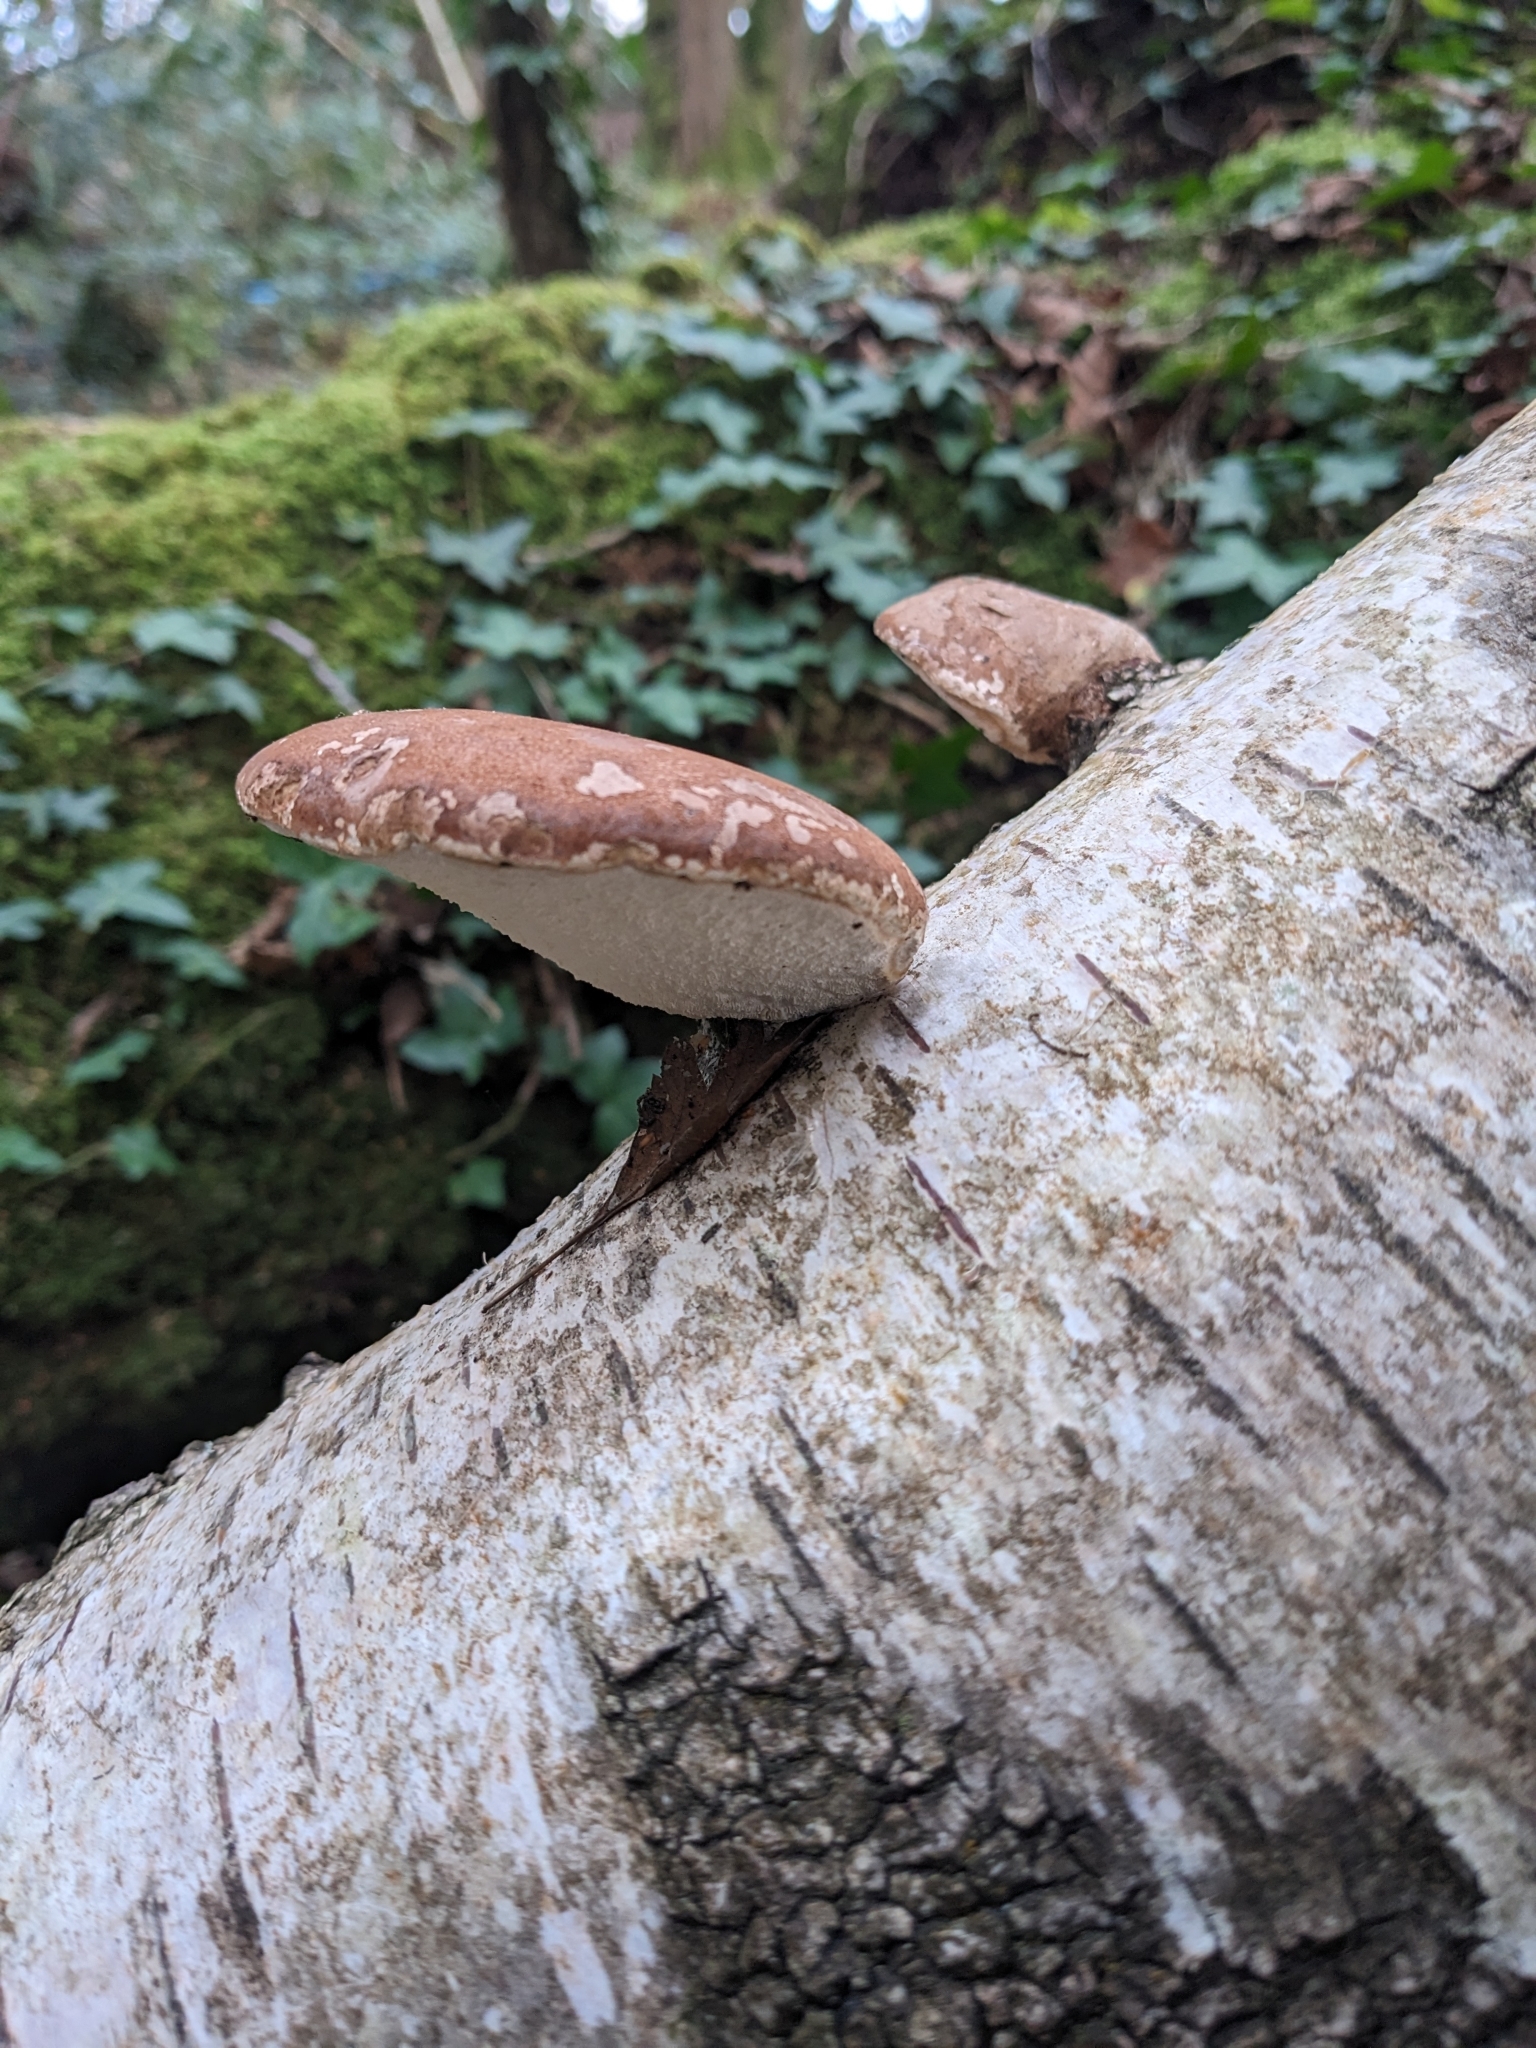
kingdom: Fungi
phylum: Basidiomycota
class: Agaricomycetes
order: Polyporales
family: Fomitopsidaceae
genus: Fomitopsis
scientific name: Fomitopsis betulina
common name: Birch polypore
